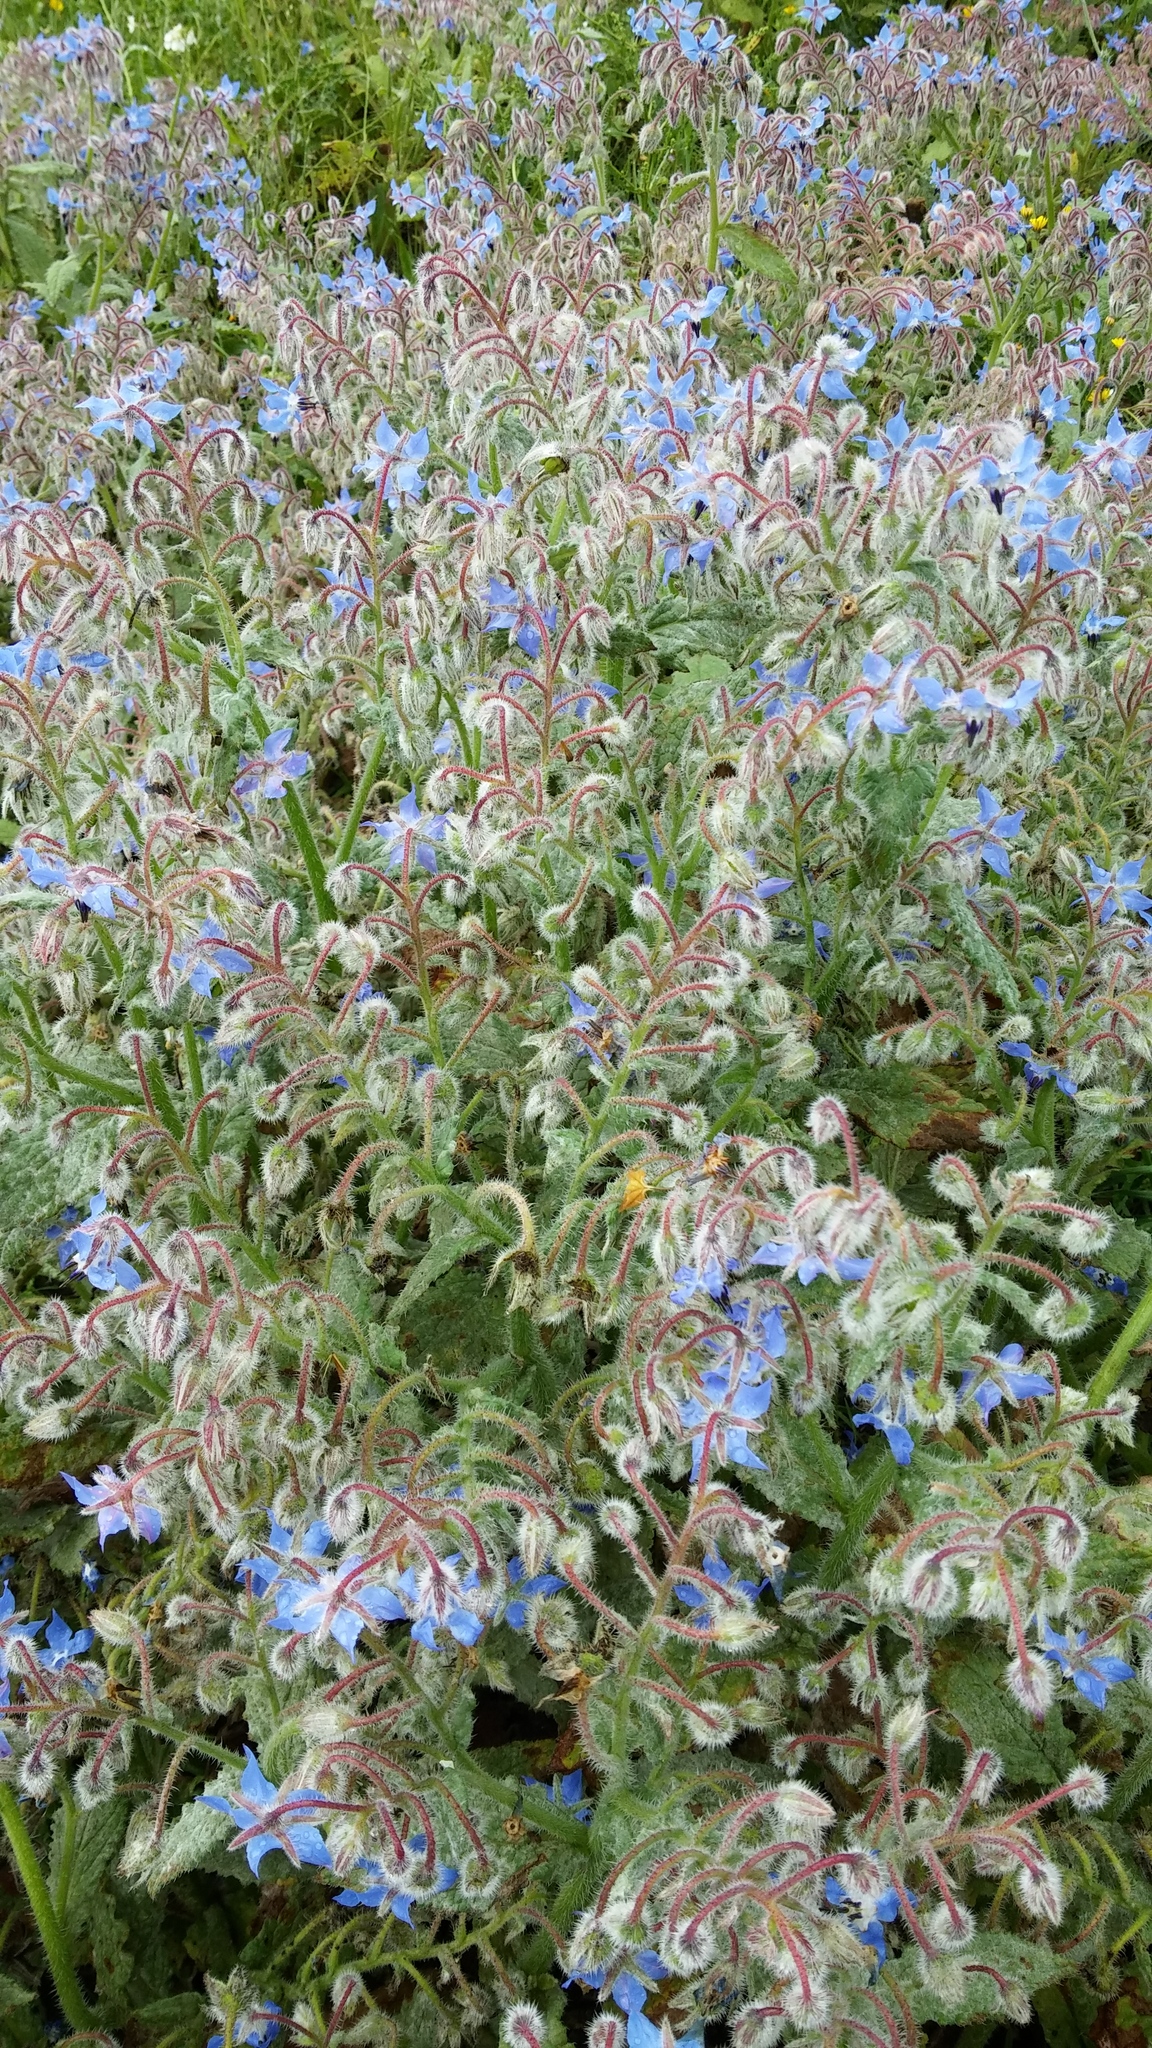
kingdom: Plantae
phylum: Tracheophyta
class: Magnoliopsida
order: Boraginales
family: Boraginaceae
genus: Borago
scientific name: Borago officinalis
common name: Borage
